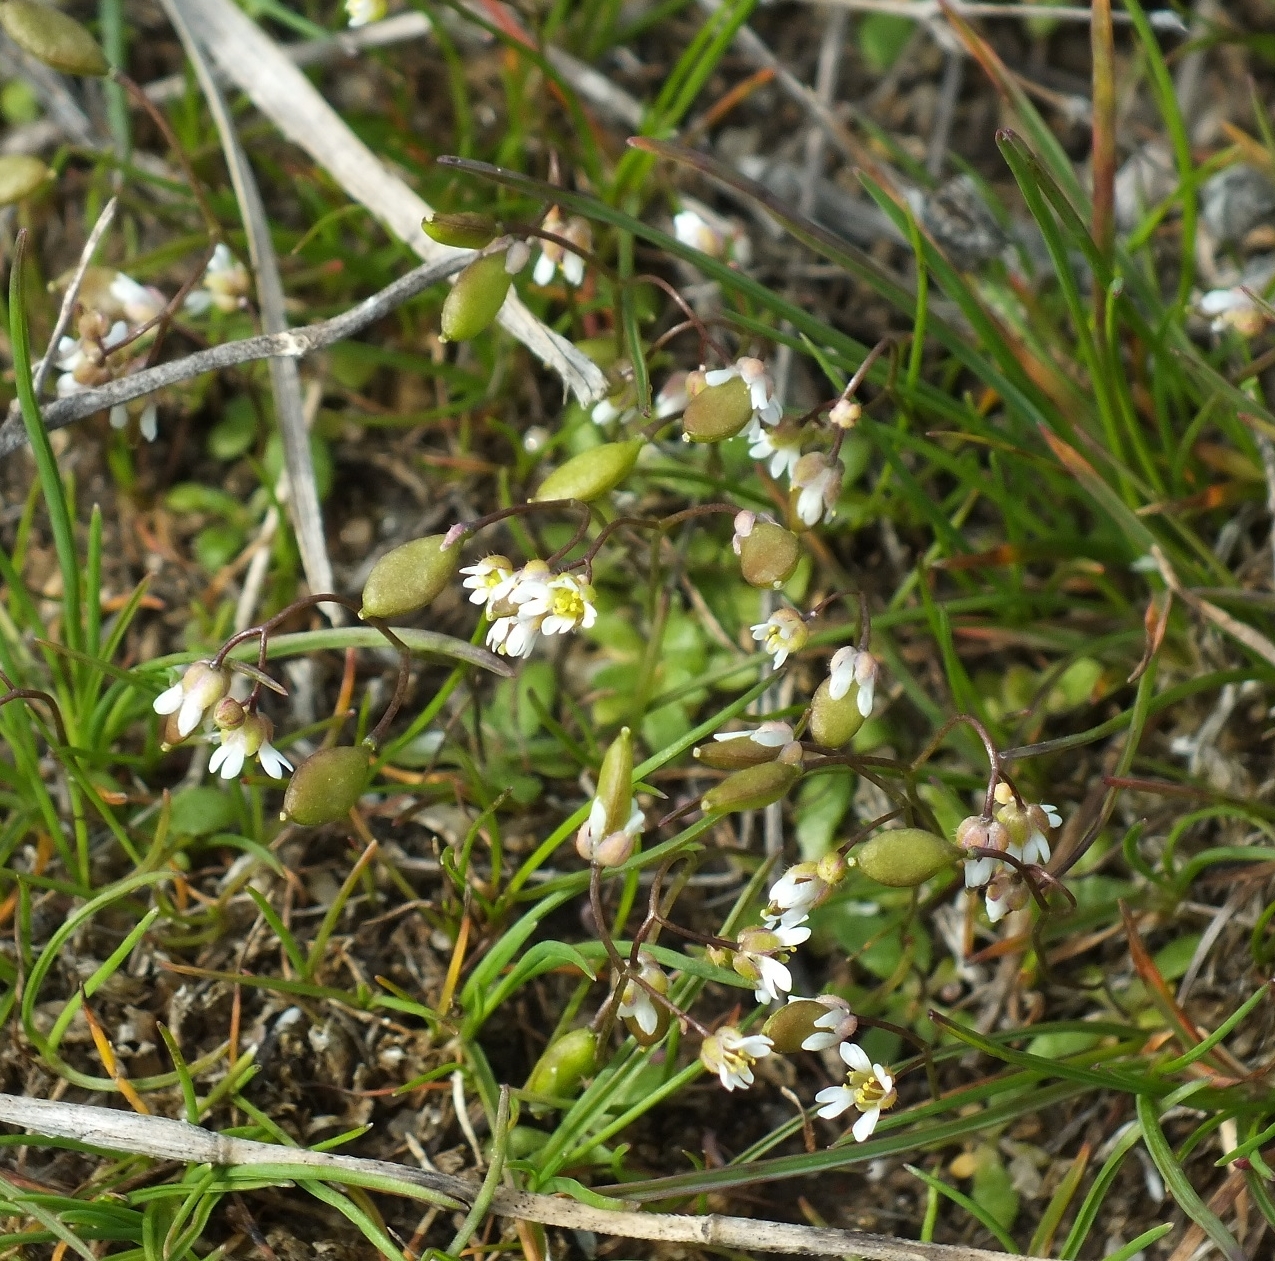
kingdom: Plantae
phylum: Tracheophyta
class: Magnoliopsida
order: Brassicales
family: Brassicaceae
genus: Draba
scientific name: Draba verna
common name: Spring draba
